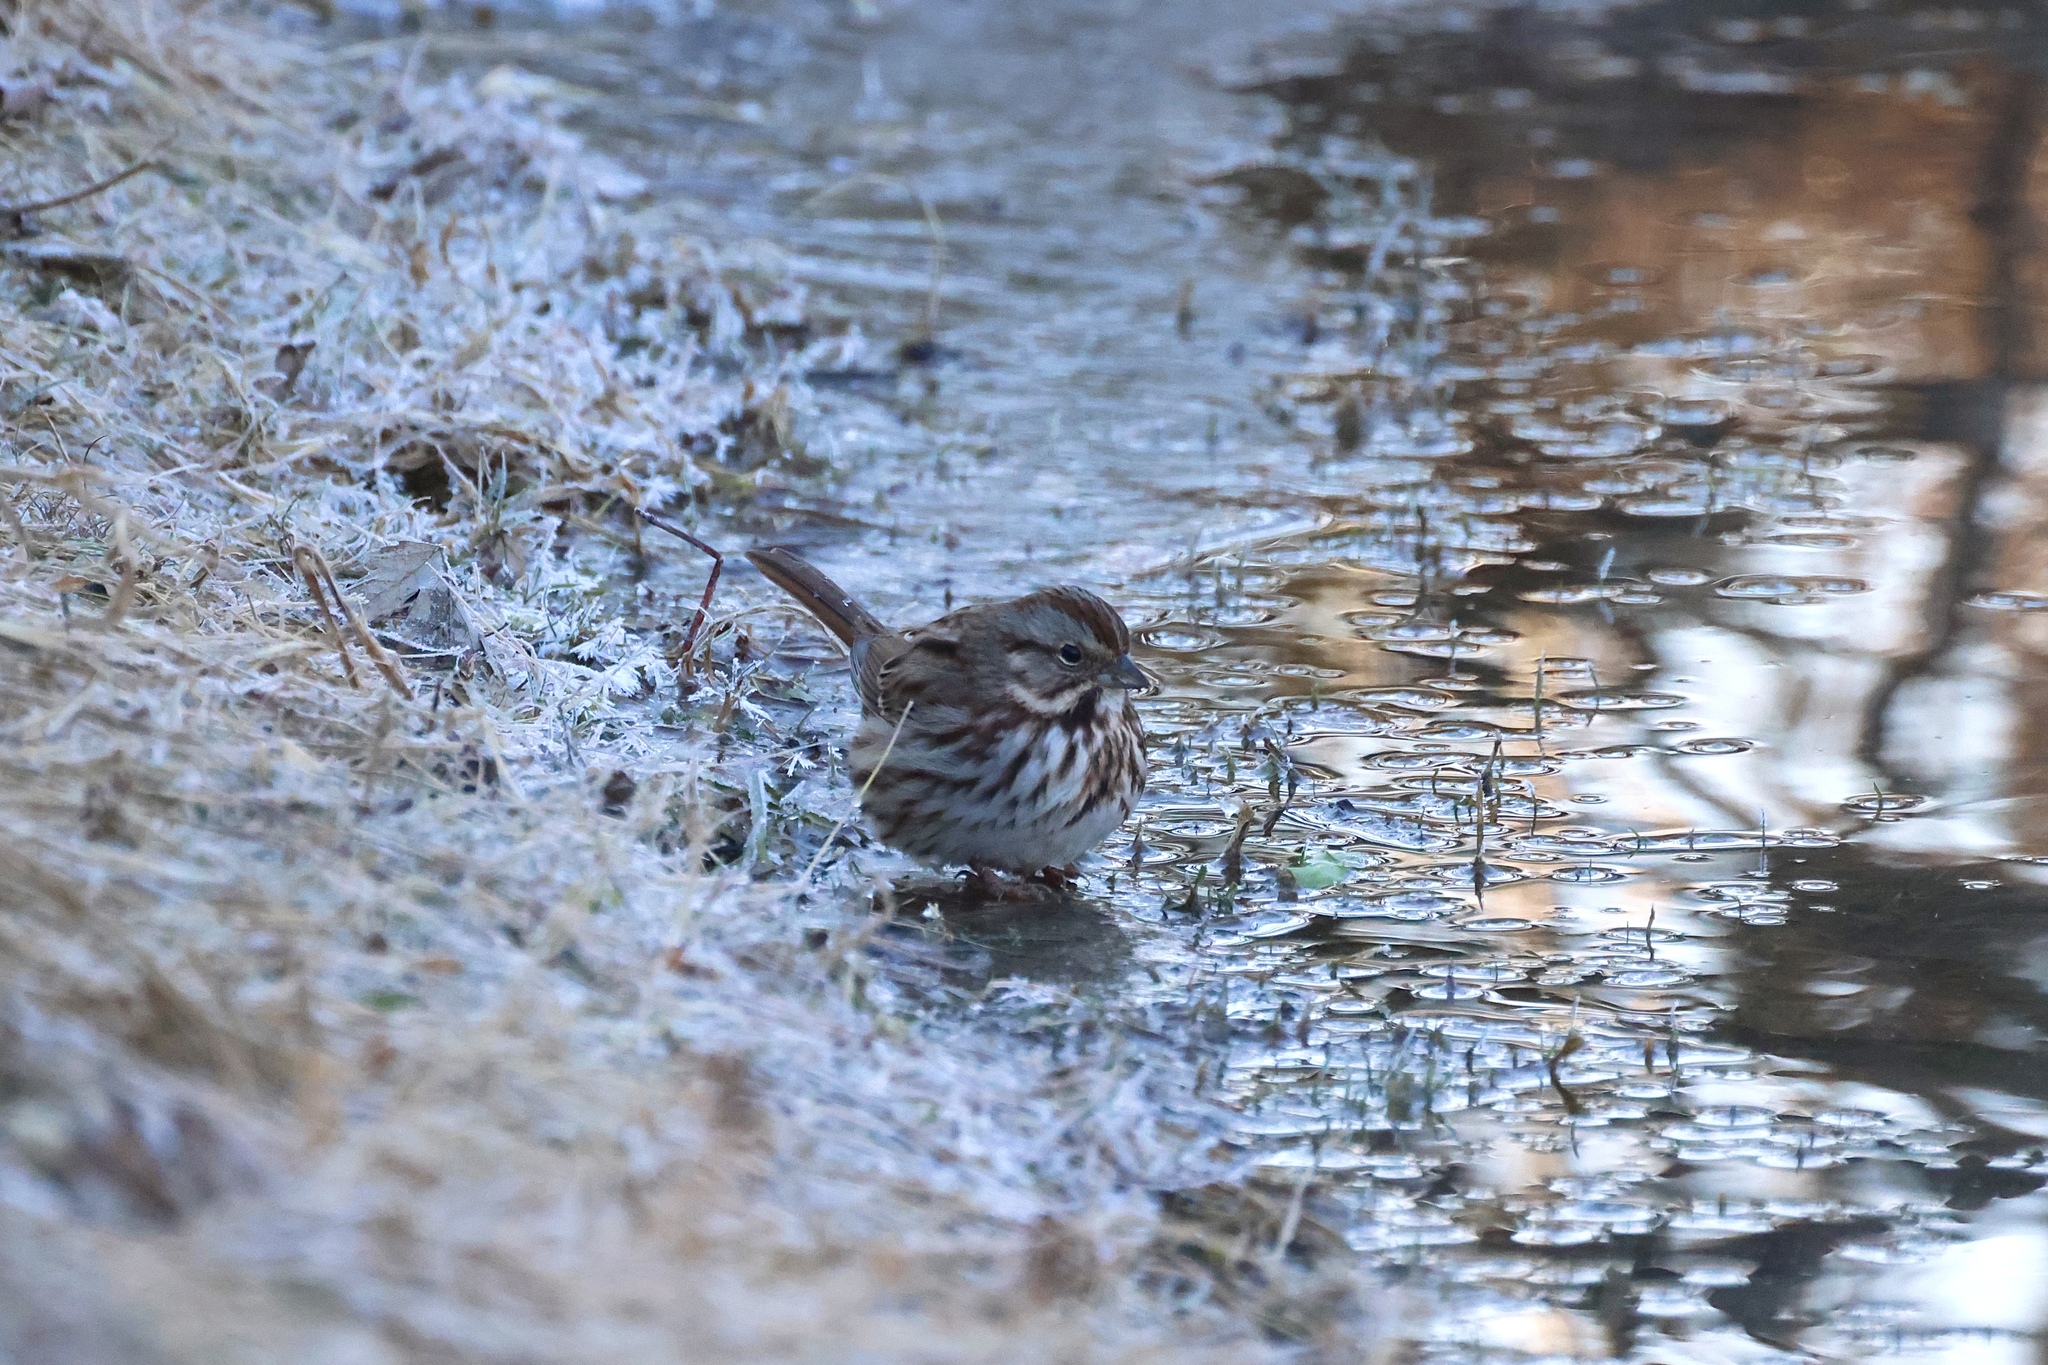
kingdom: Animalia
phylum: Chordata
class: Aves
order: Passeriformes
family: Passerellidae
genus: Melospiza
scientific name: Melospiza melodia
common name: Song sparrow
